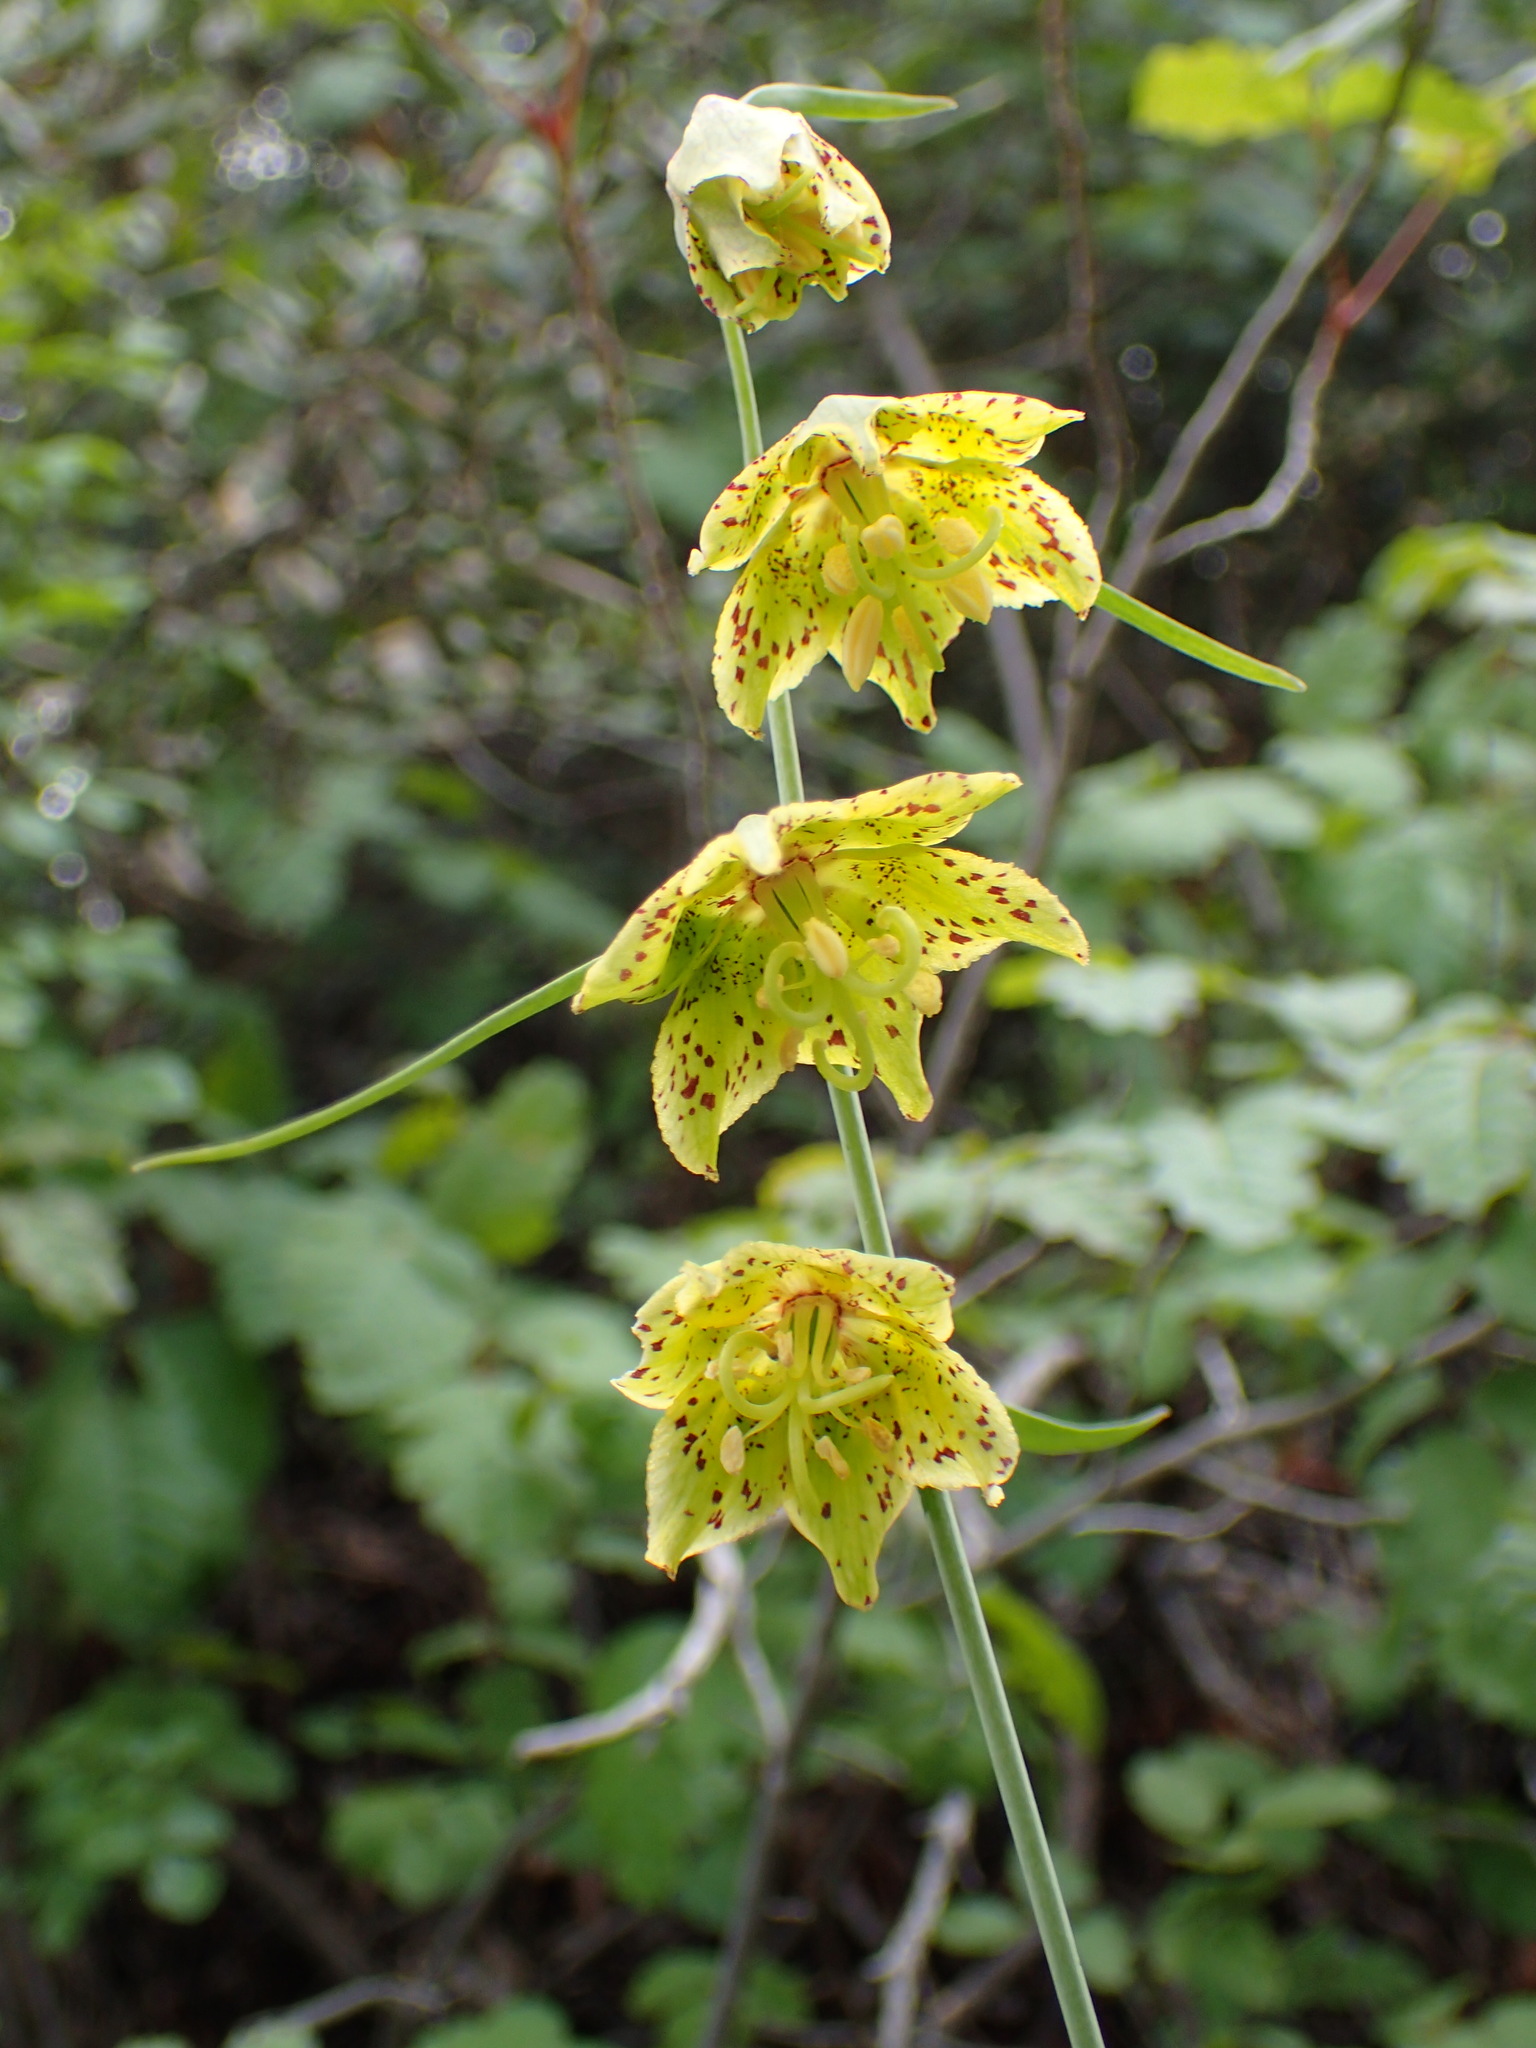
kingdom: Plantae
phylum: Tracheophyta
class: Liliopsida
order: Liliales
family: Liliaceae
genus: Fritillaria
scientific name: Fritillaria ojaiensis
